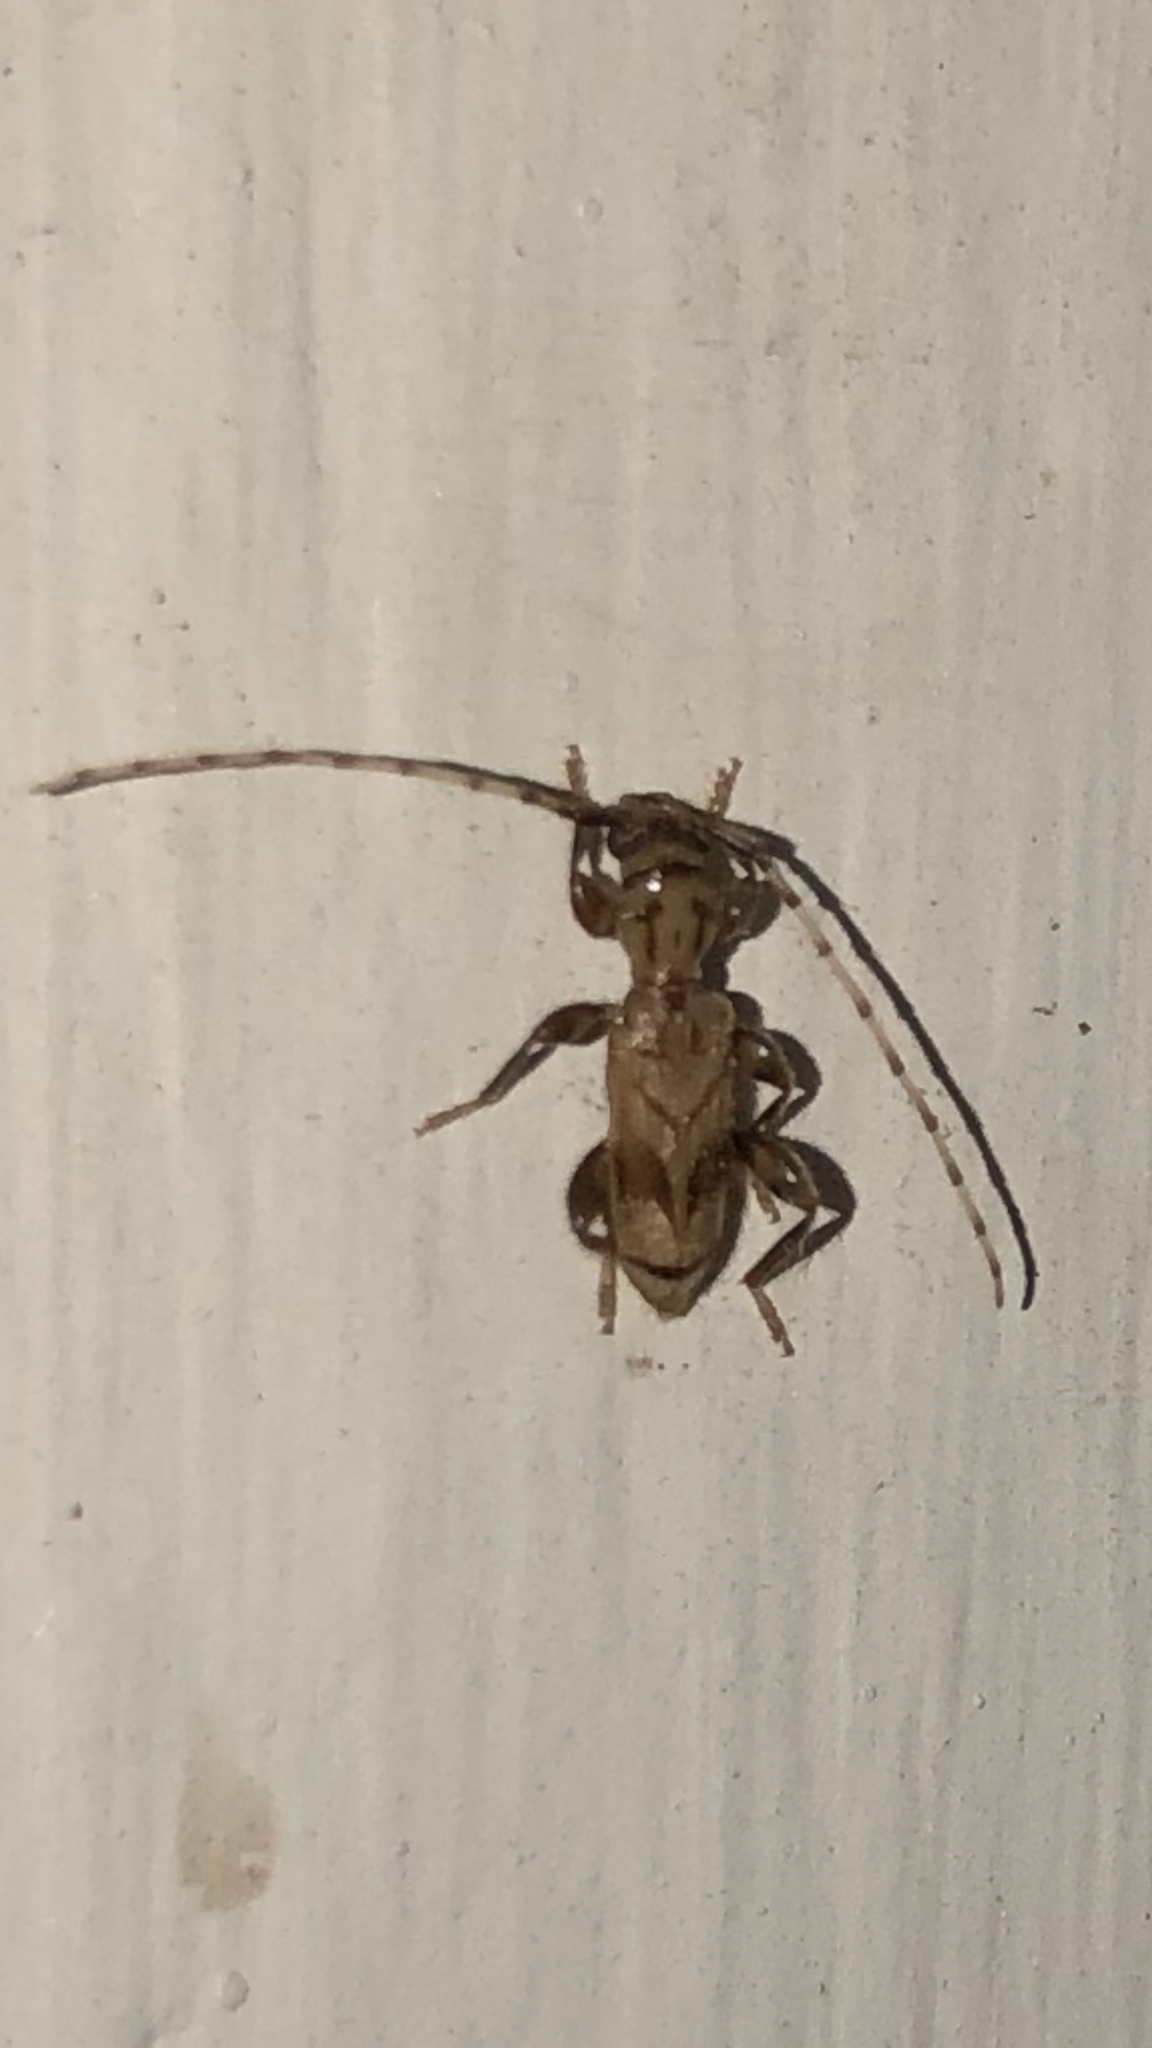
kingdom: Animalia
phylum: Arthropoda
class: Insecta
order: Coleoptera
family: Cerambycidae
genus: Obrium
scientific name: Obrium maculatum
